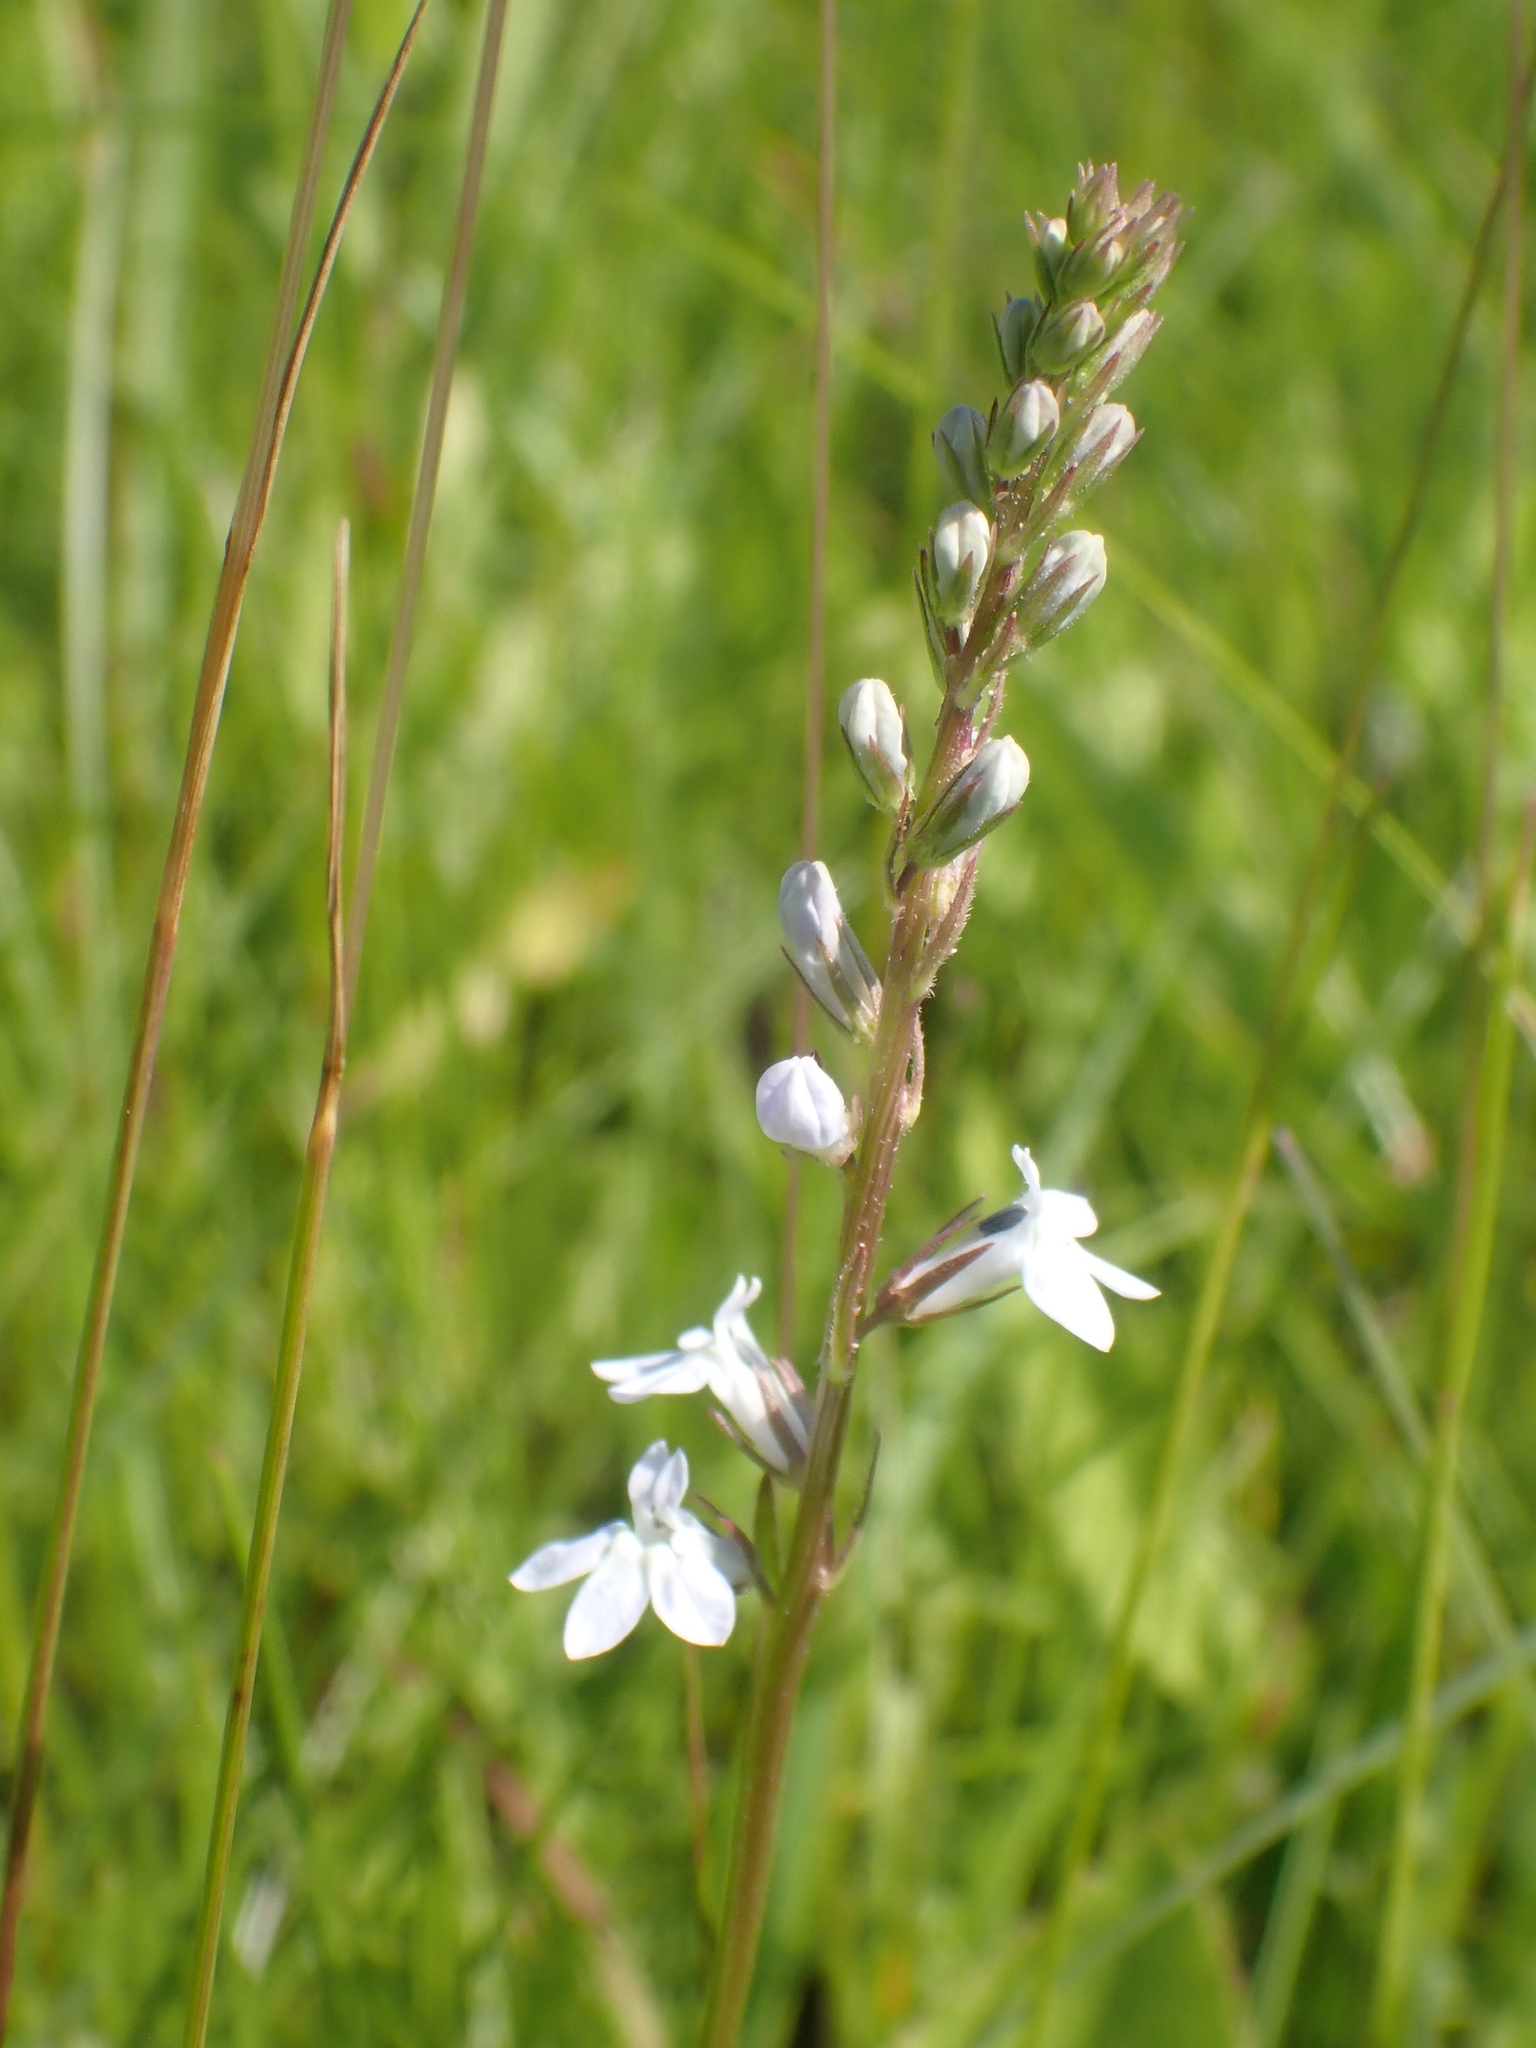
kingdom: Plantae
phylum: Tracheophyta
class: Magnoliopsida
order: Asterales
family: Campanulaceae
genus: Lobelia
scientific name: Lobelia spicata
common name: Pale-spike lobelia
